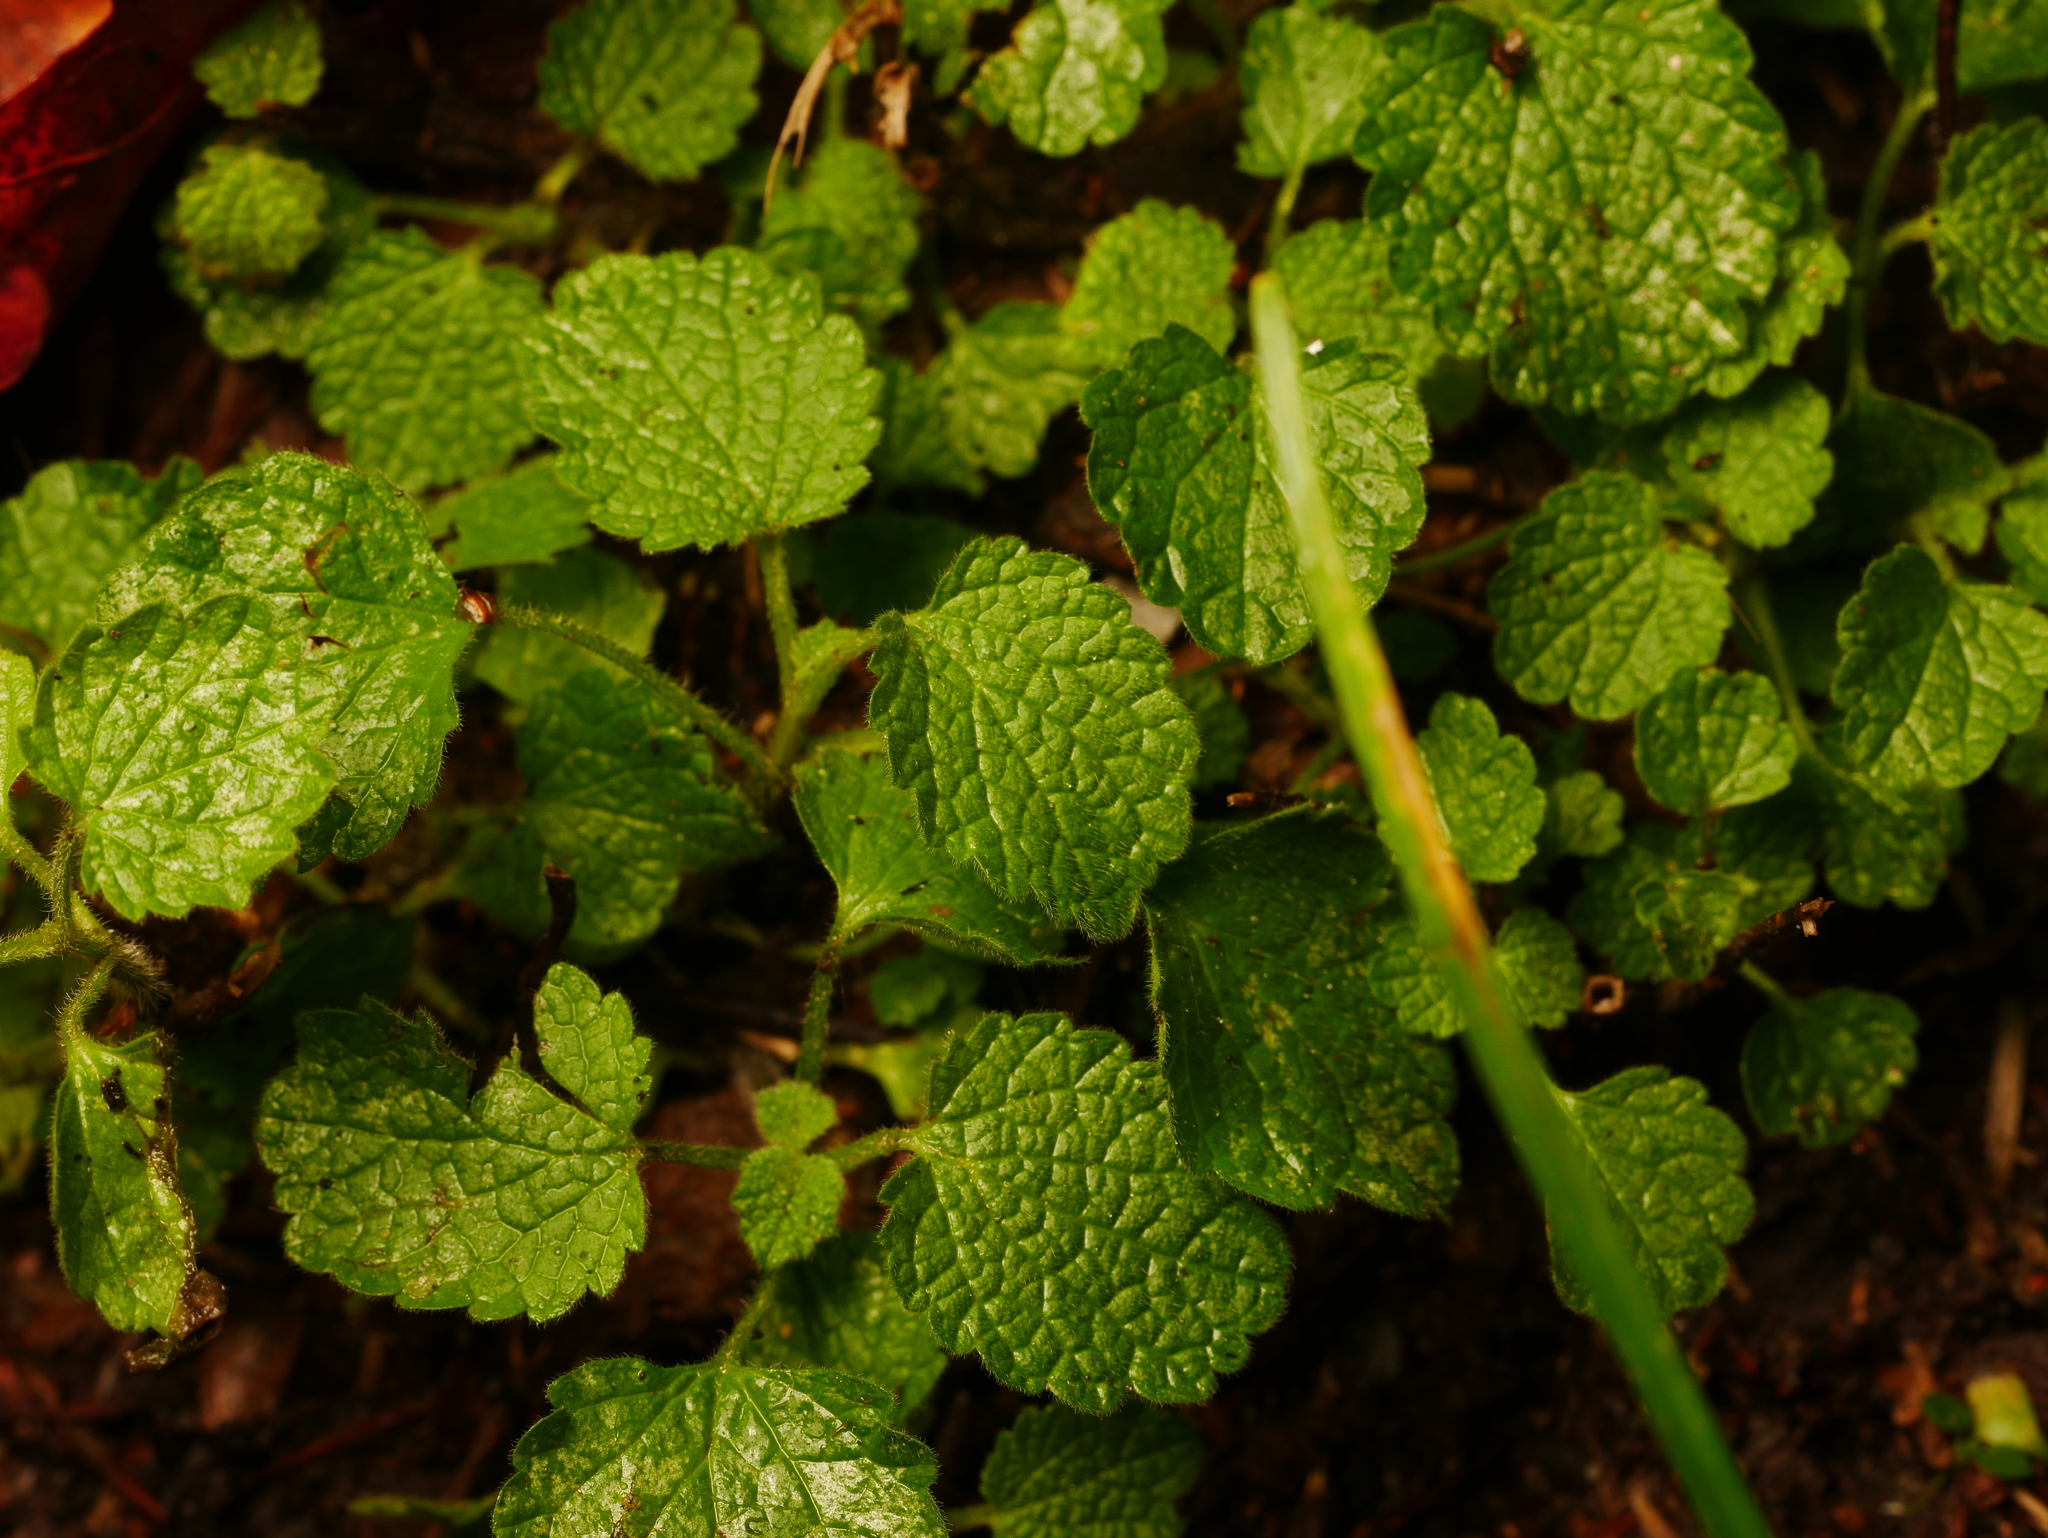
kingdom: Plantae
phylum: Tracheophyta
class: Magnoliopsida
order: Lamiales
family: Lamiaceae
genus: Ballota
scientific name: Ballota nigra
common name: Black horehound
